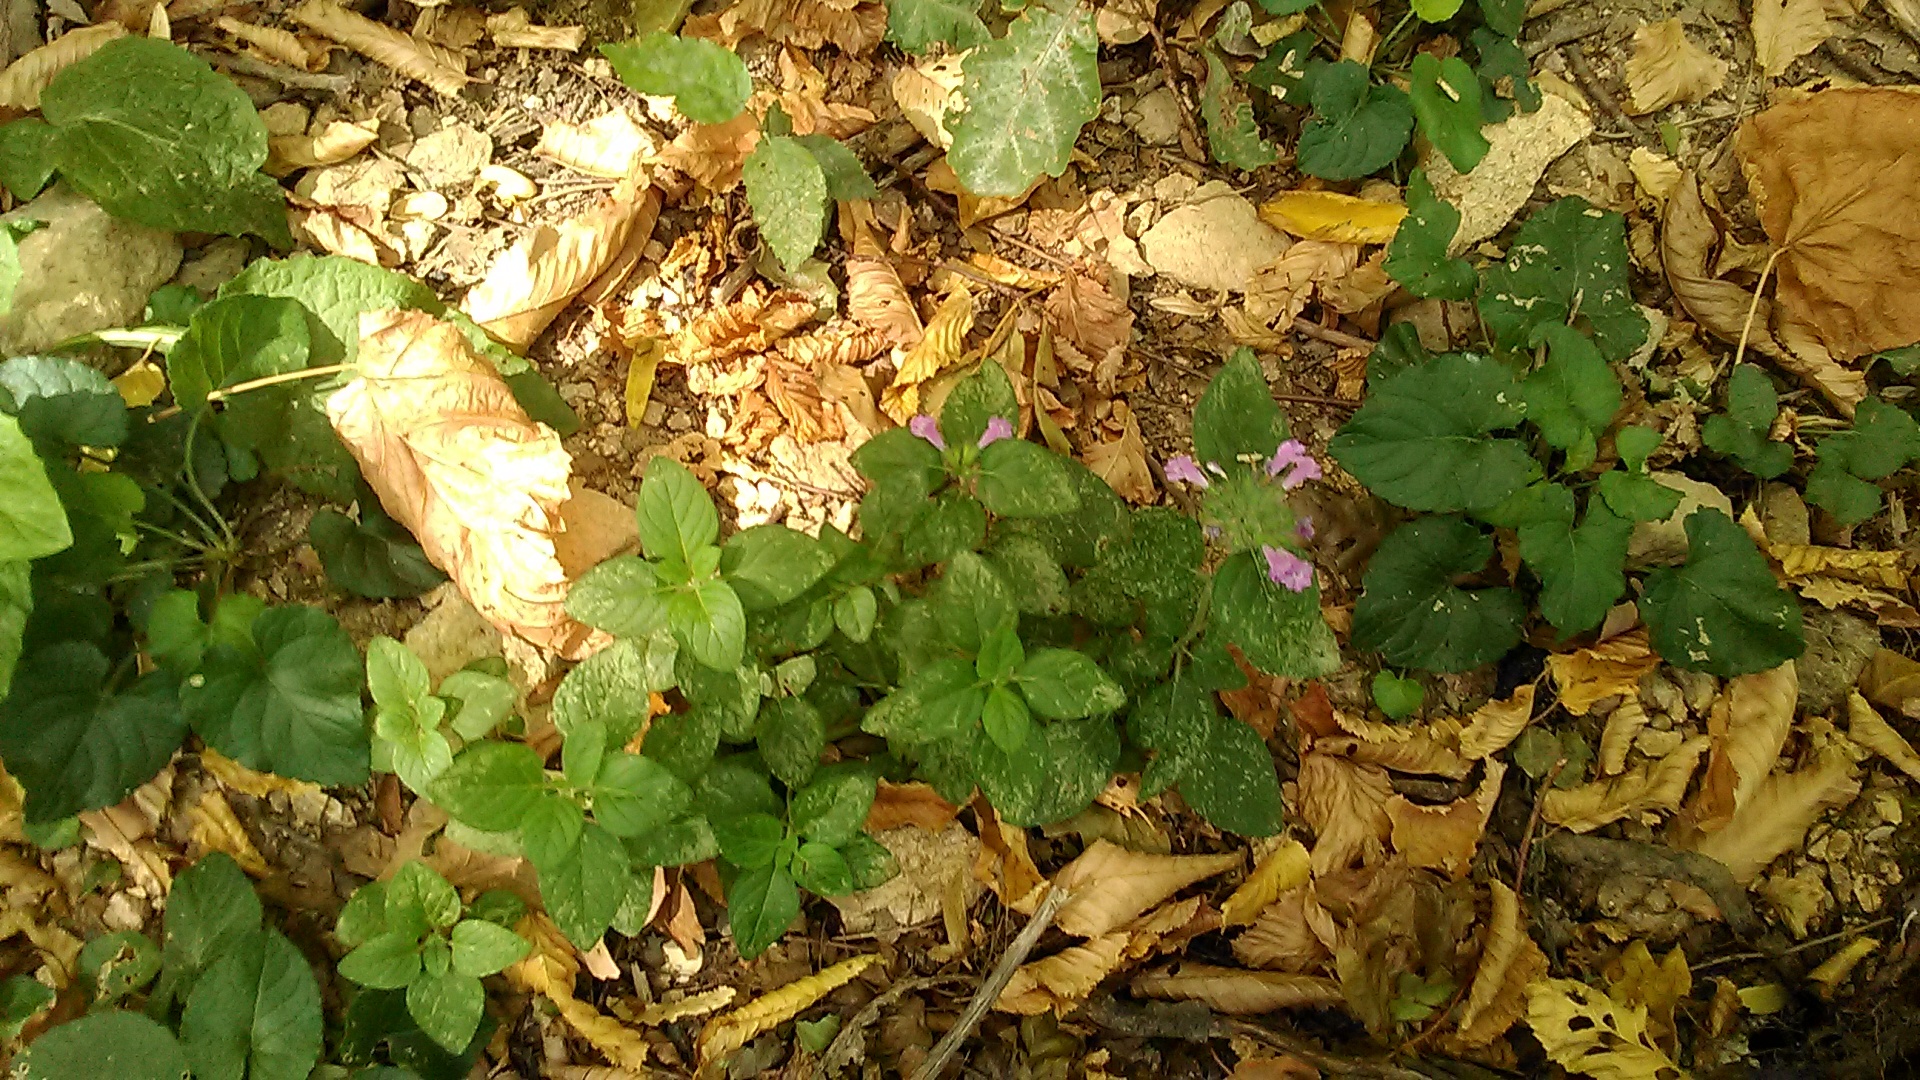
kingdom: Plantae
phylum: Tracheophyta
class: Magnoliopsida
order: Lamiales
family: Lamiaceae
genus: Clinopodium
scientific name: Clinopodium vulgare
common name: Wild basil
